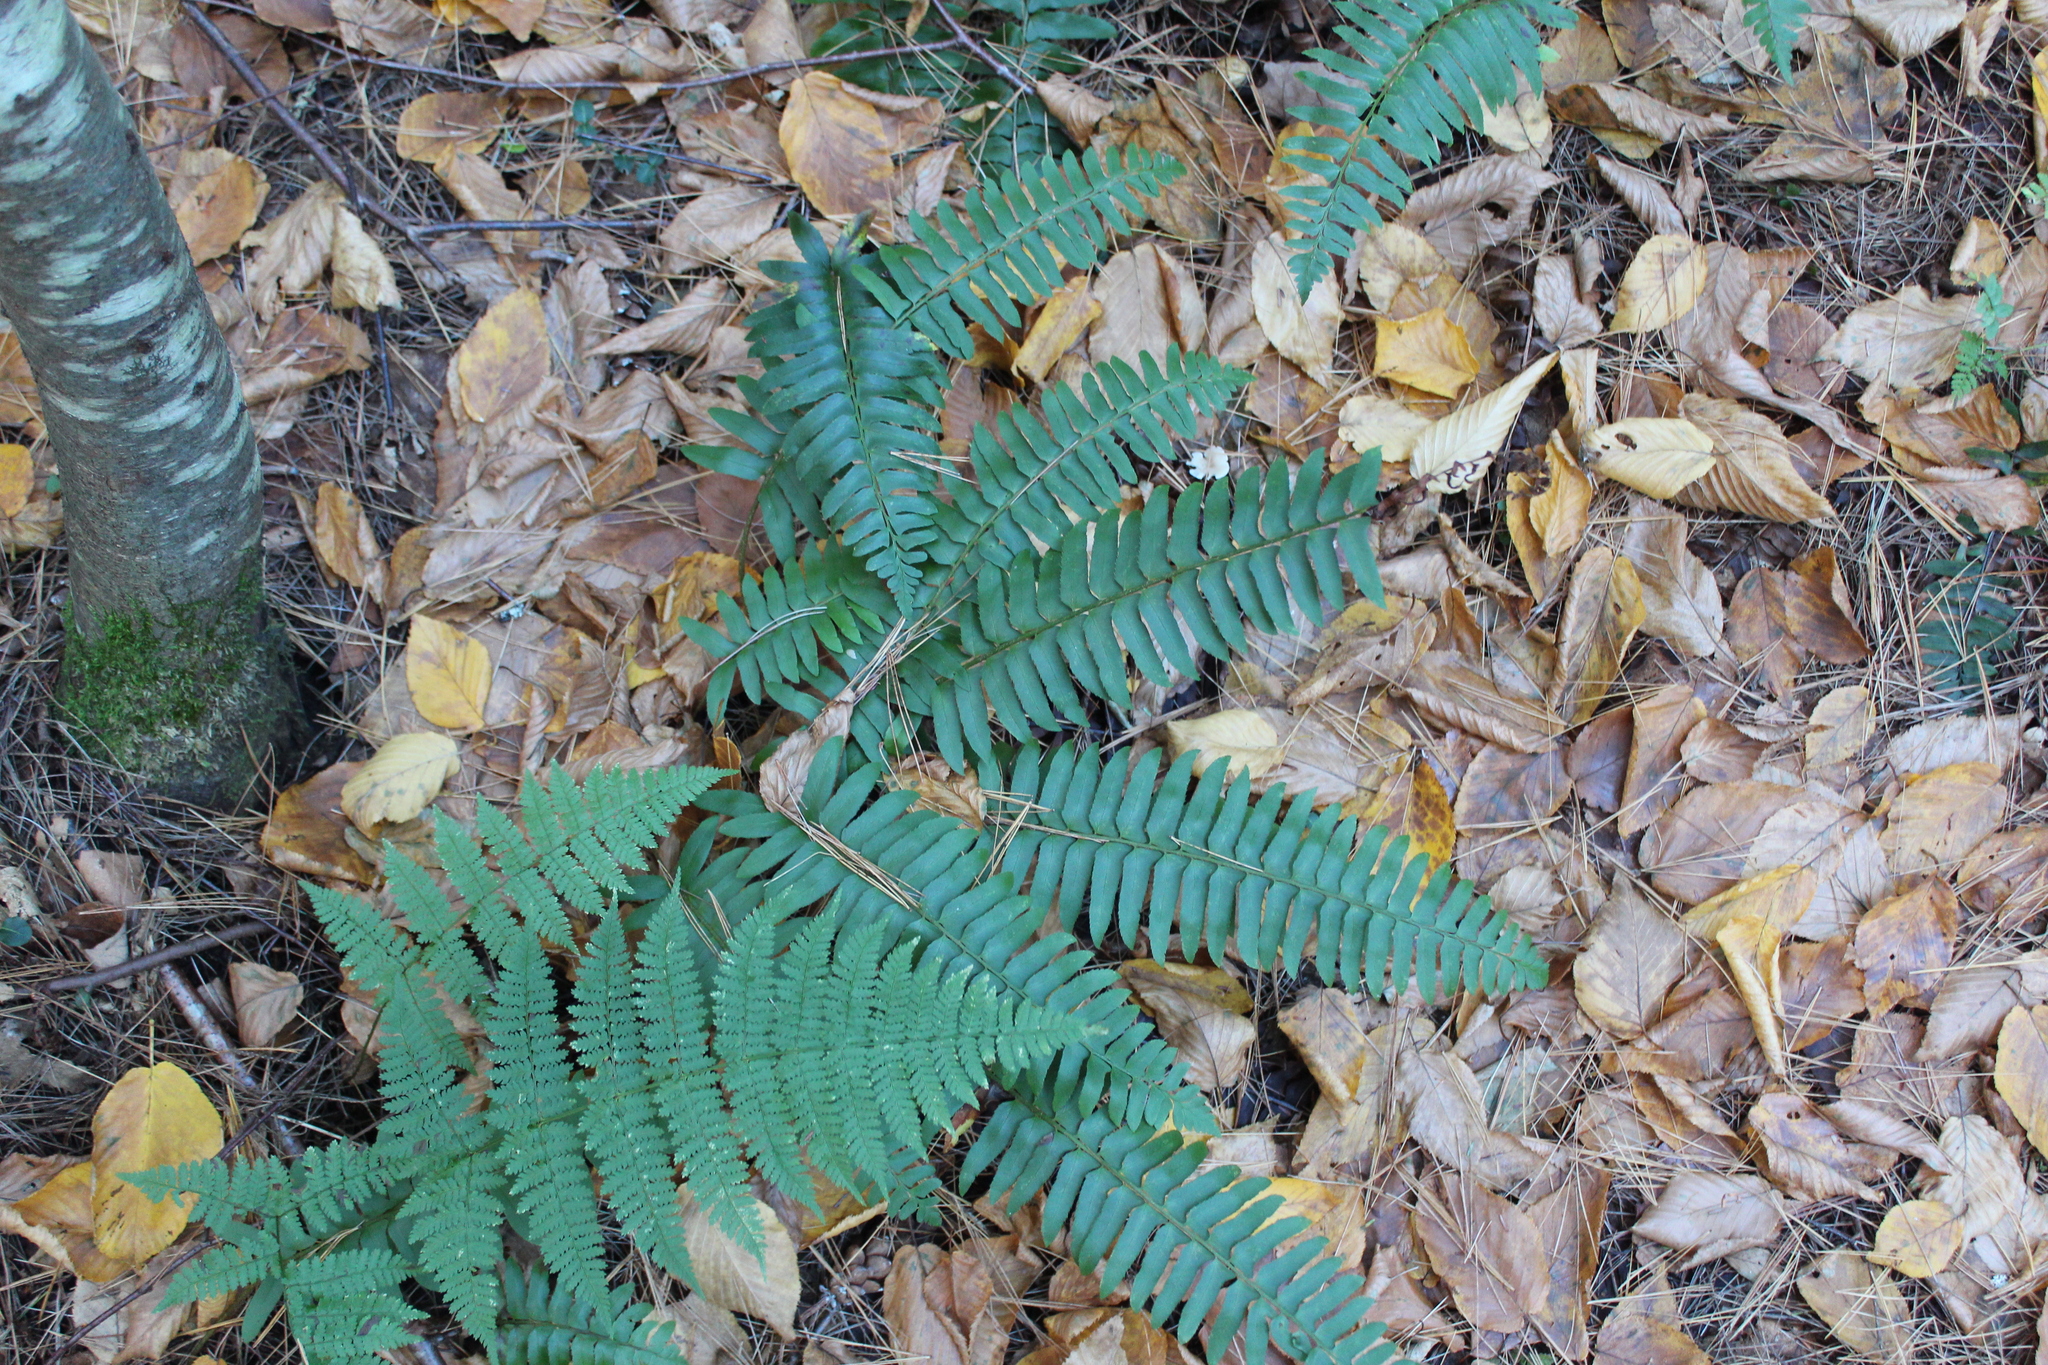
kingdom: Plantae
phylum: Tracheophyta
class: Polypodiopsida
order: Polypodiales
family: Dryopteridaceae
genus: Polystichum
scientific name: Polystichum acrostichoides
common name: Christmas fern
